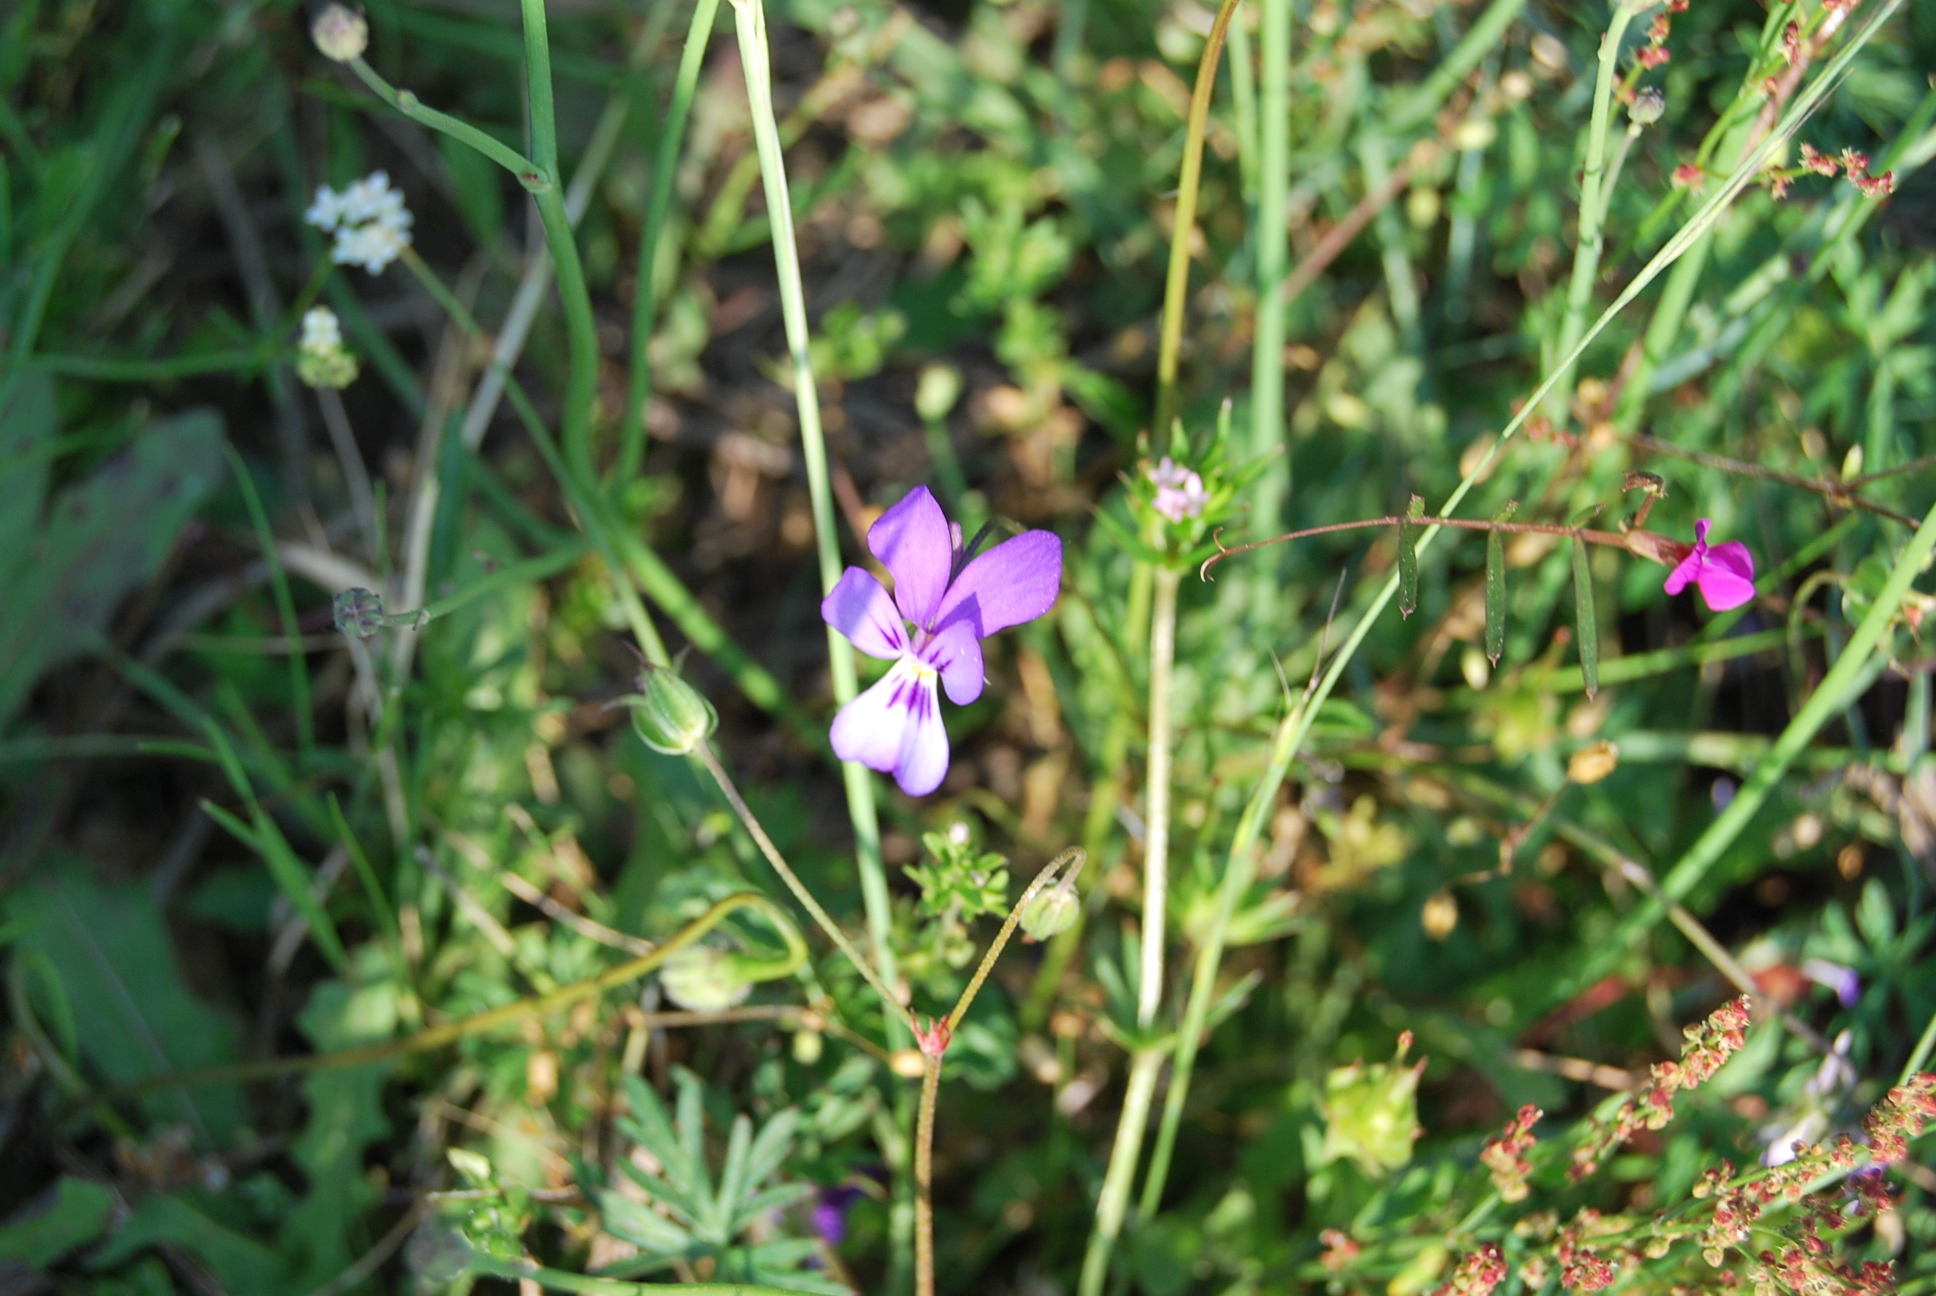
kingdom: Plantae
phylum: Tracheophyta
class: Magnoliopsida
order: Malpighiales
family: Violaceae
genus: Viola
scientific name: Viola bubanii
